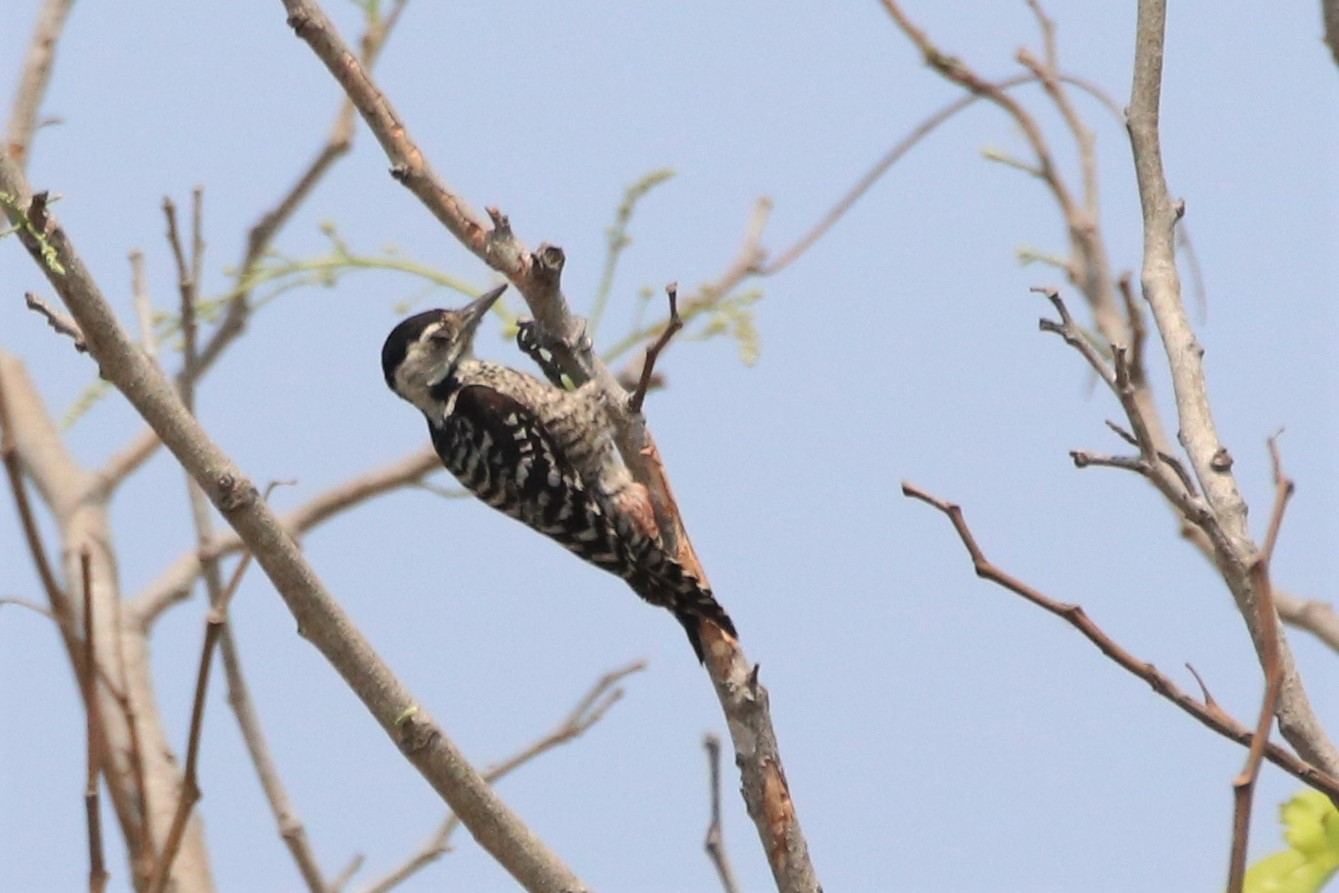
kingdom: Animalia
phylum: Chordata
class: Aves
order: Piciformes
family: Picidae
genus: Dendrocopos
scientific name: Dendrocopos analis
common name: Freckle-breasted woodpecker
